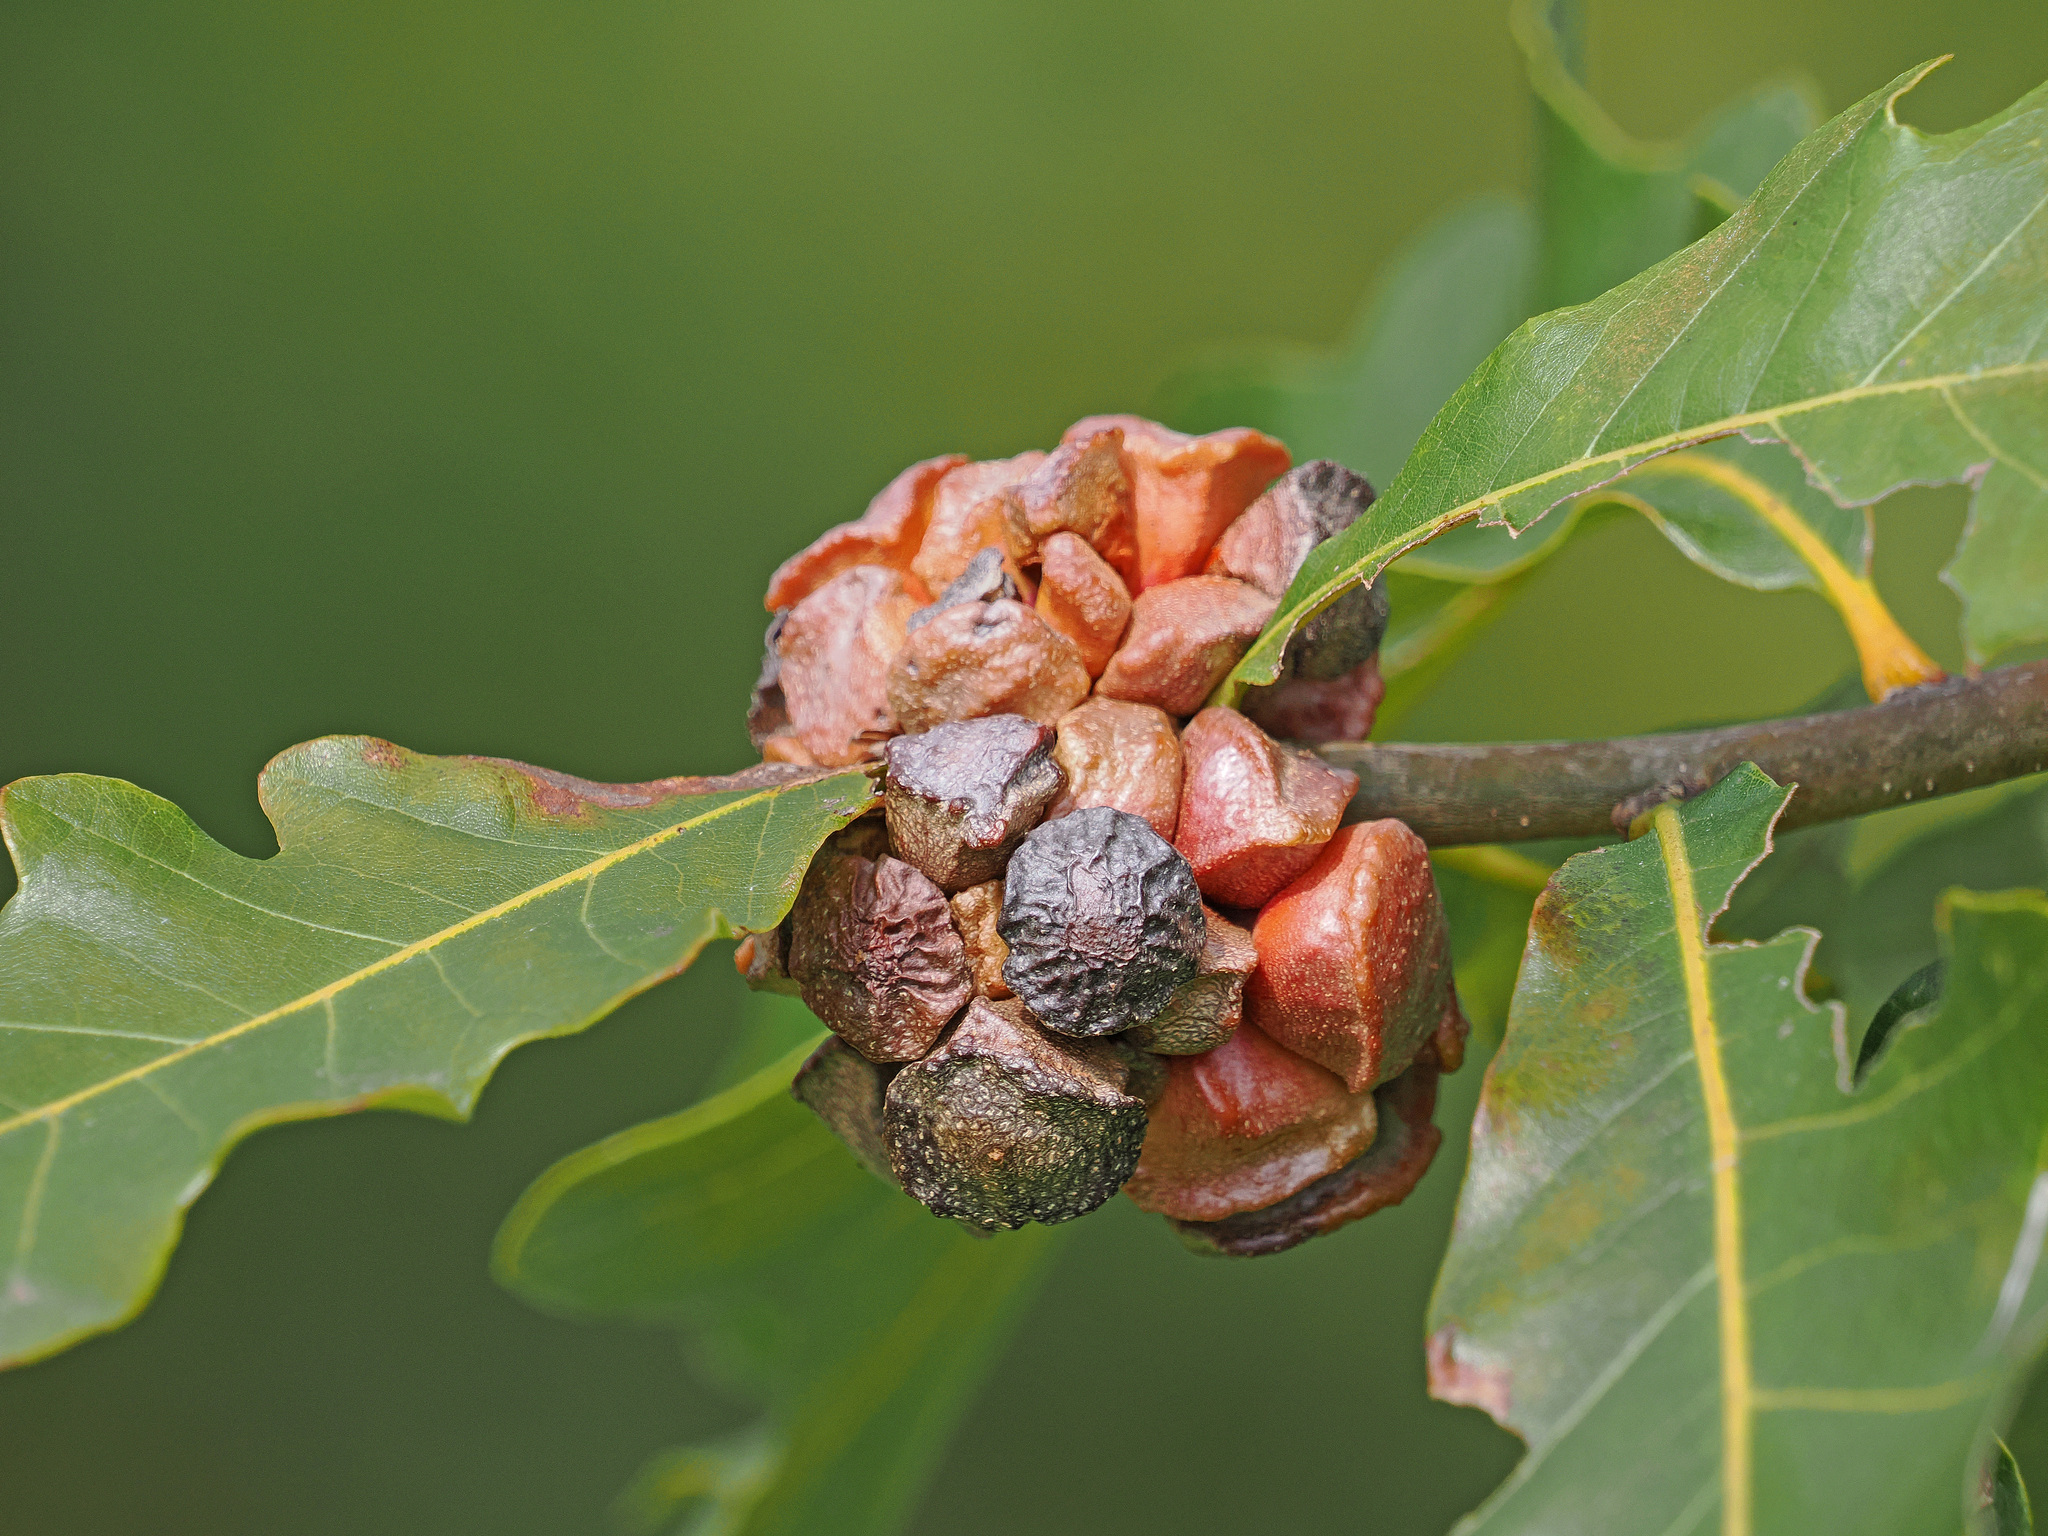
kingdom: Animalia
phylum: Arthropoda
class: Insecta
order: Hymenoptera
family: Cynipidae
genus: Andricus
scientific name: Andricus
